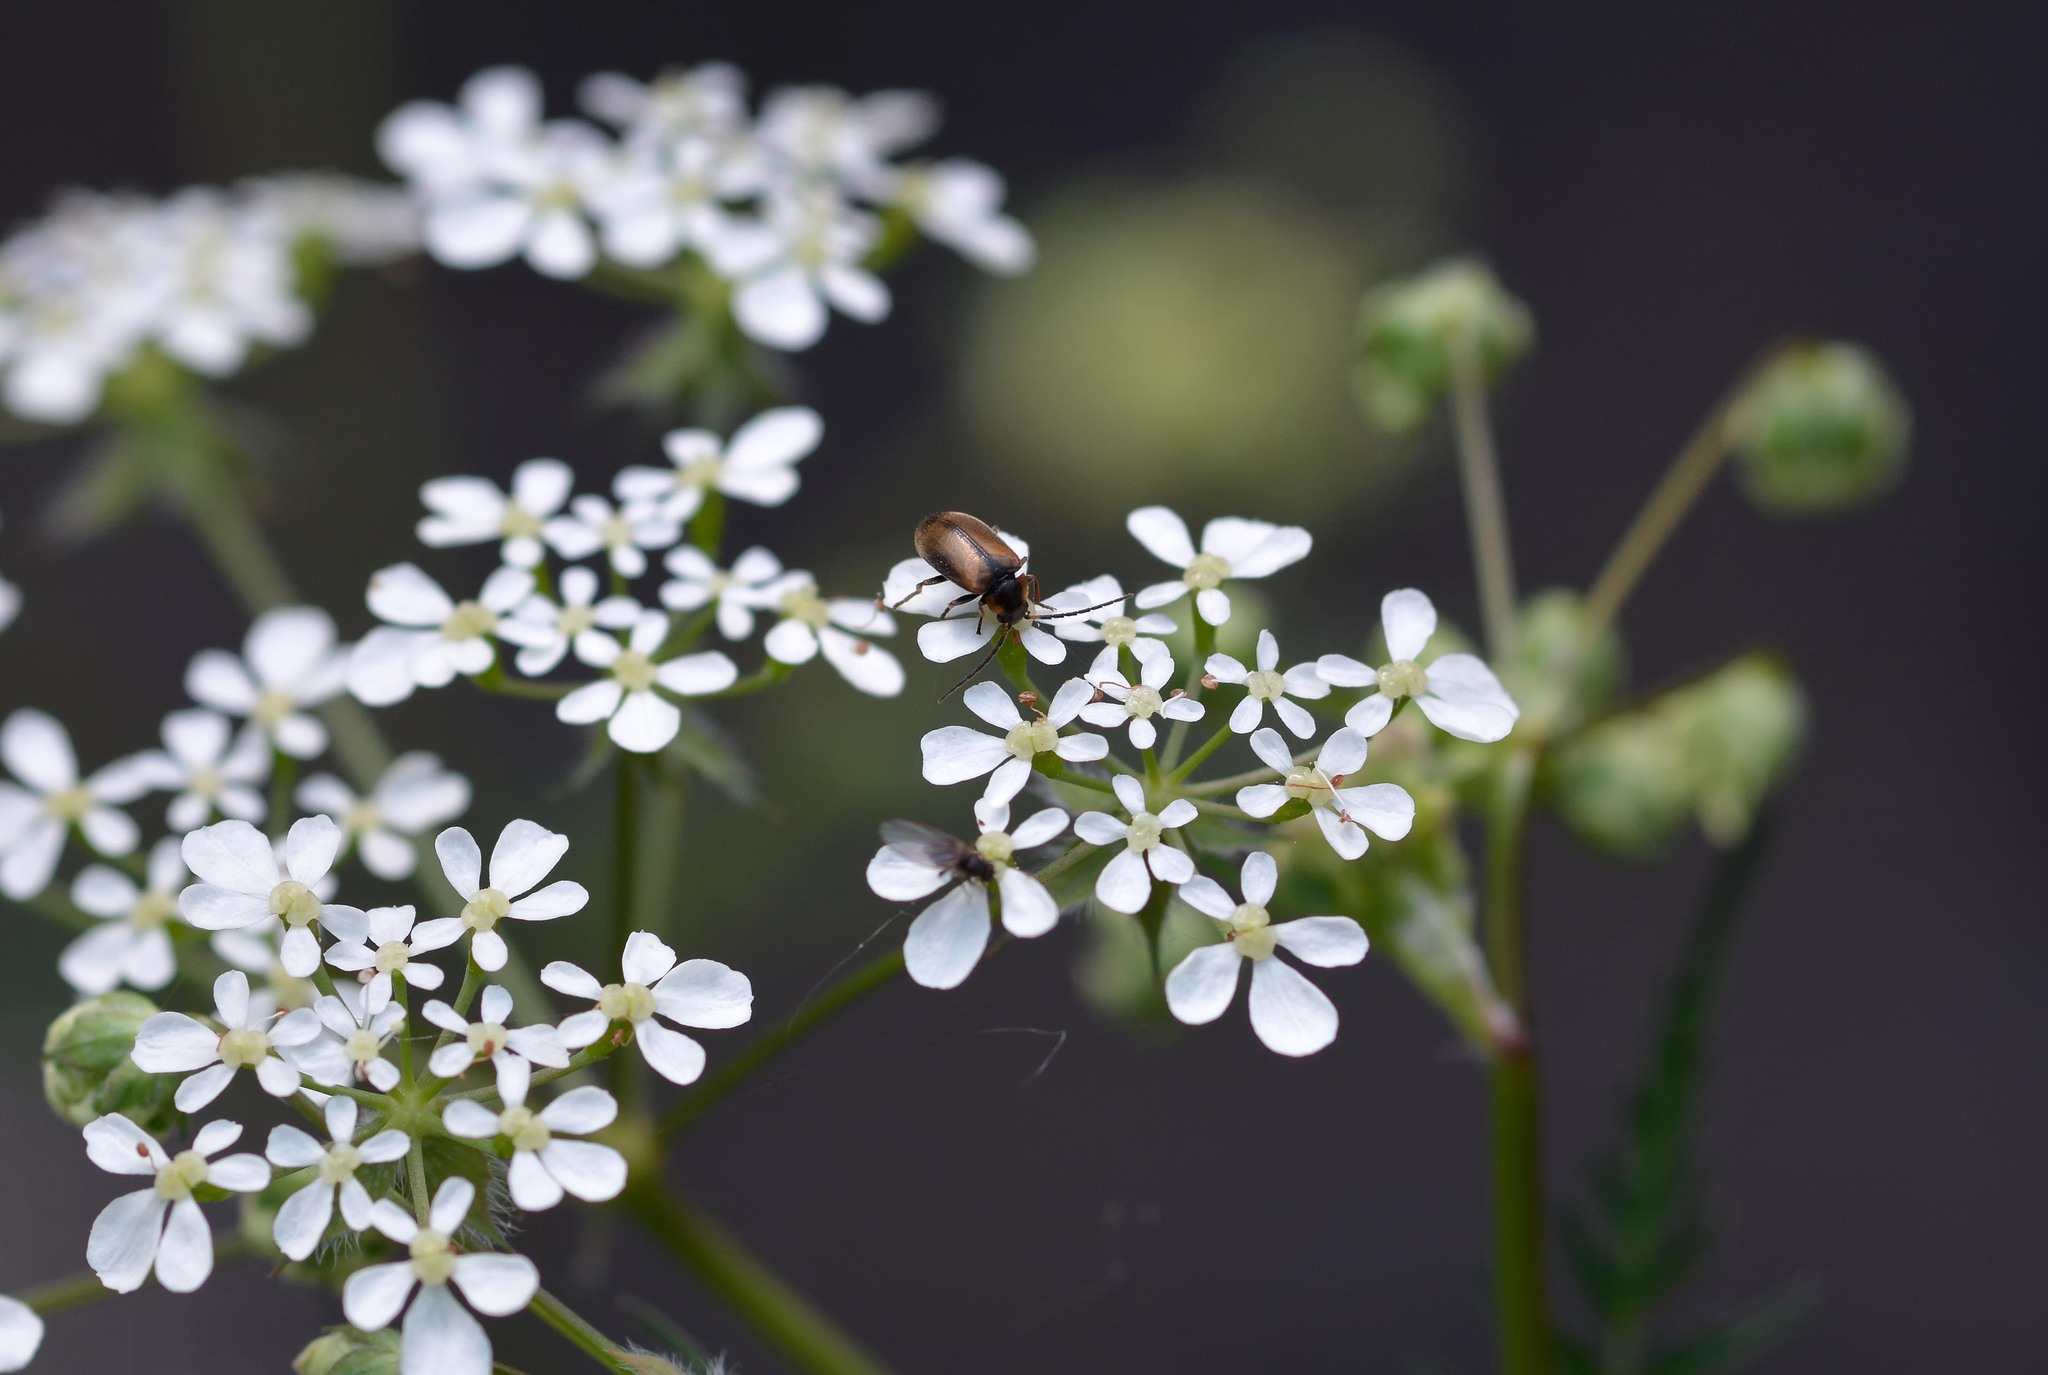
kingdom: Animalia
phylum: Arthropoda
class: Insecta
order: Coleoptera
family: Scirtidae
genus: Odeles
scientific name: Odeles marginata
